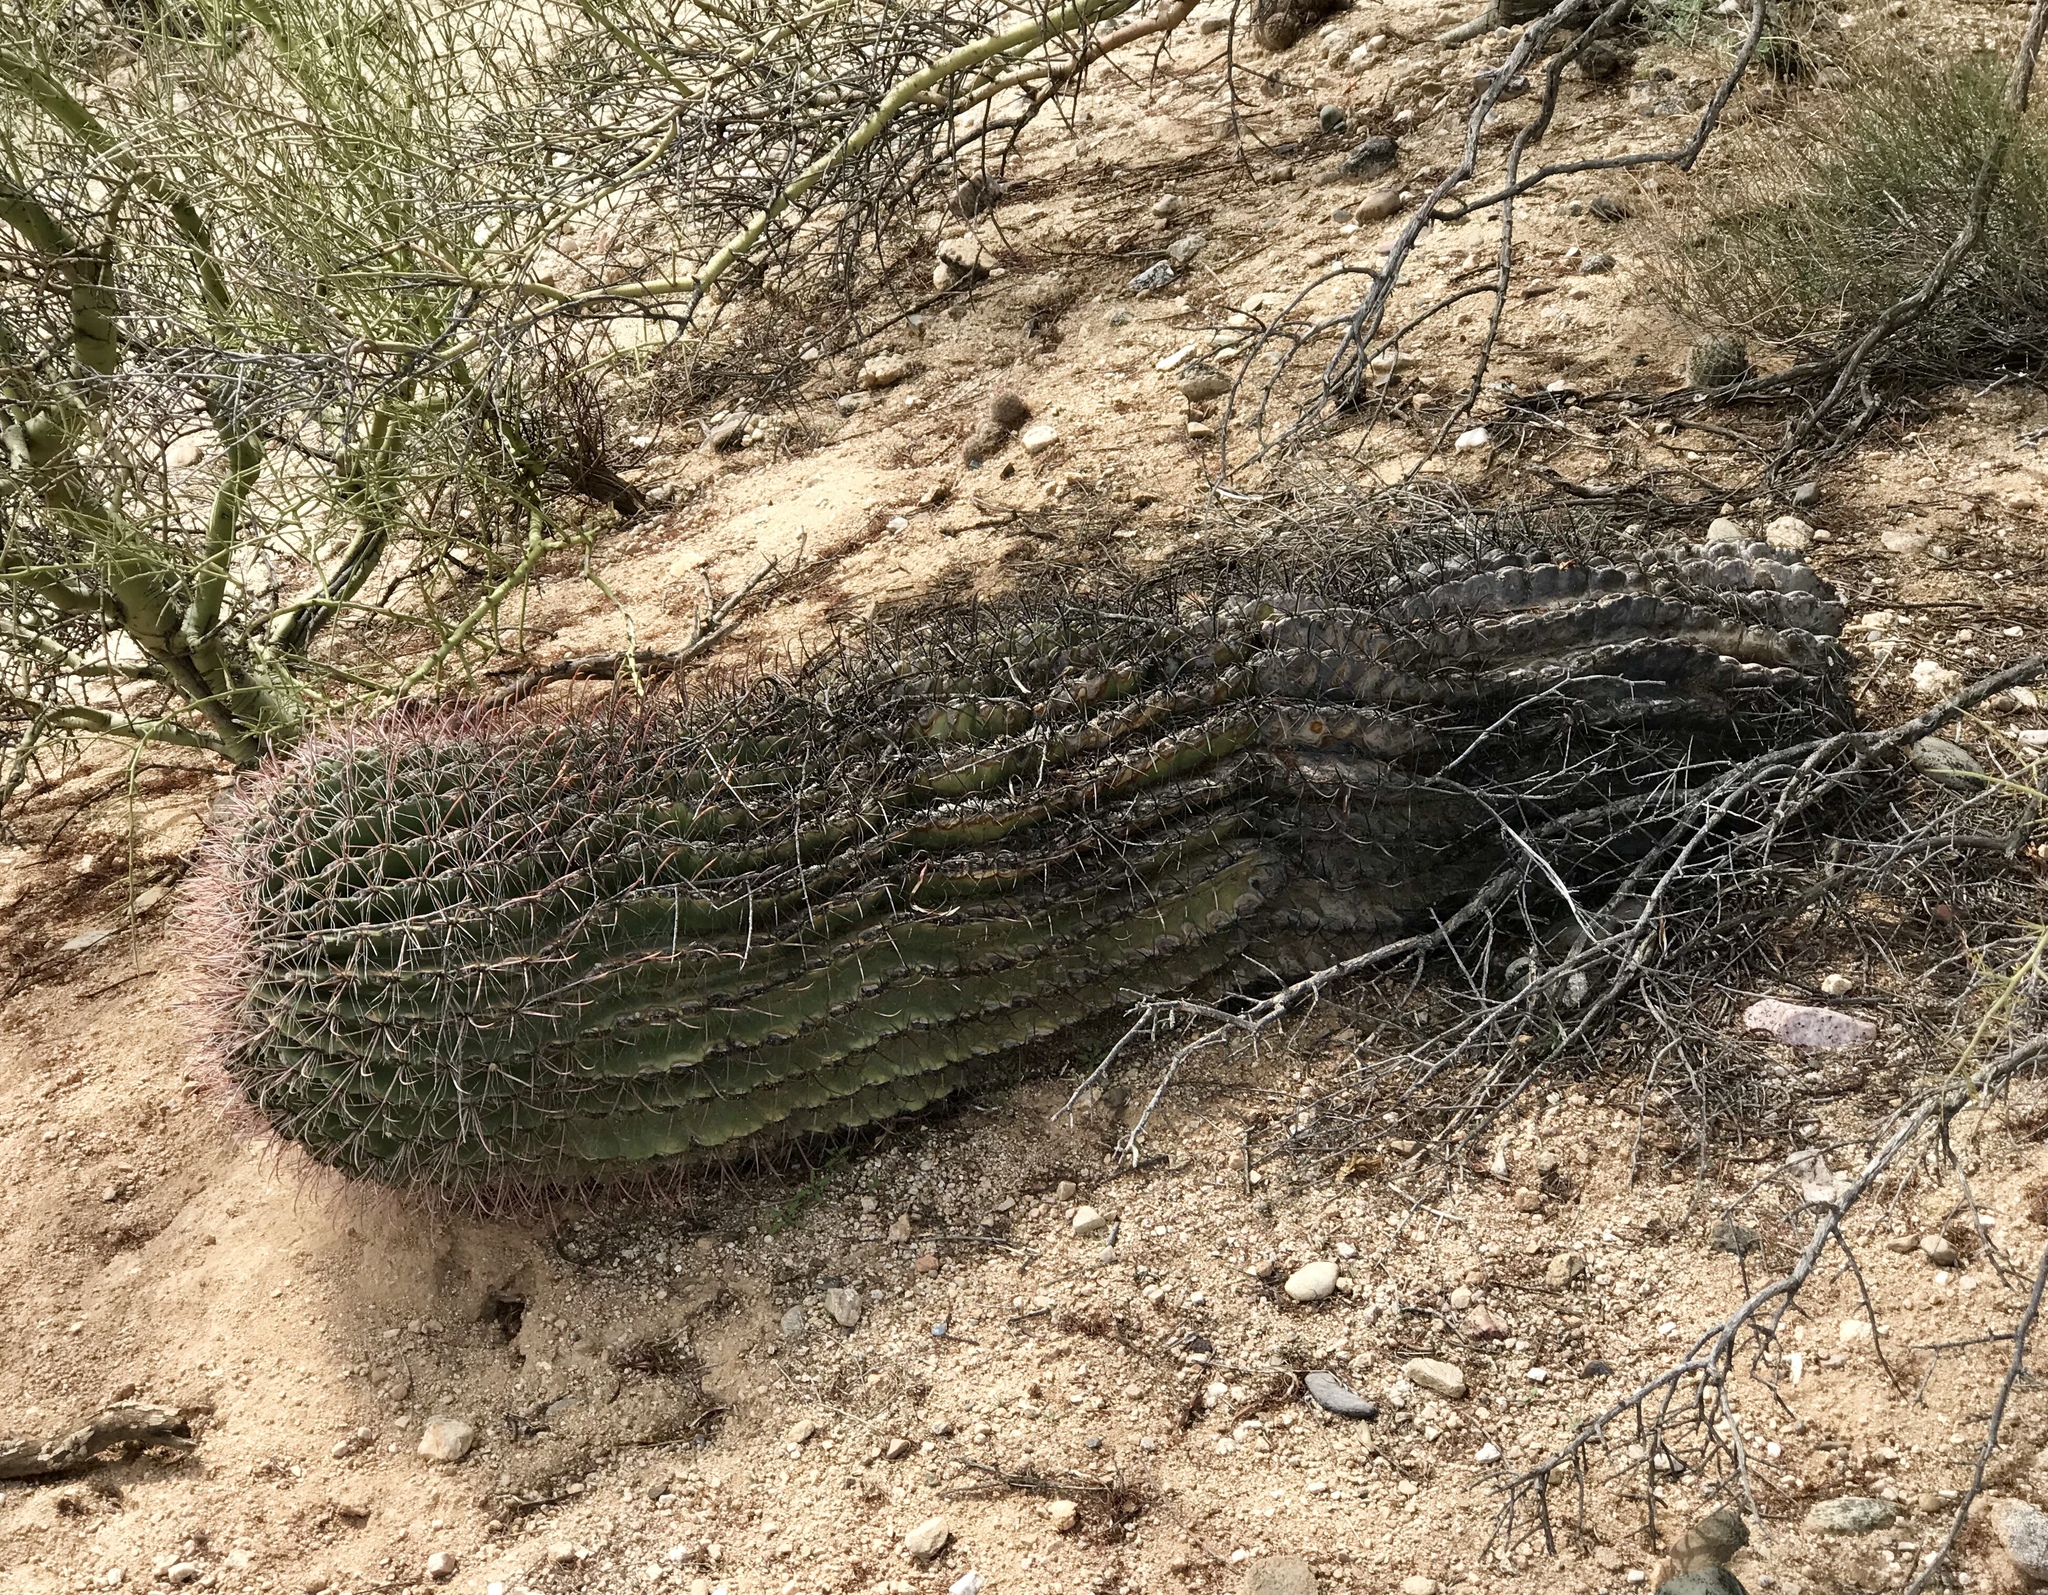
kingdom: Plantae
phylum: Tracheophyta
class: Magnoliopsida
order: Caryophyllales
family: Cactaceae
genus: Ferocactus
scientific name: Ferocactus wislizeni
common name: Candy barrel cactus
